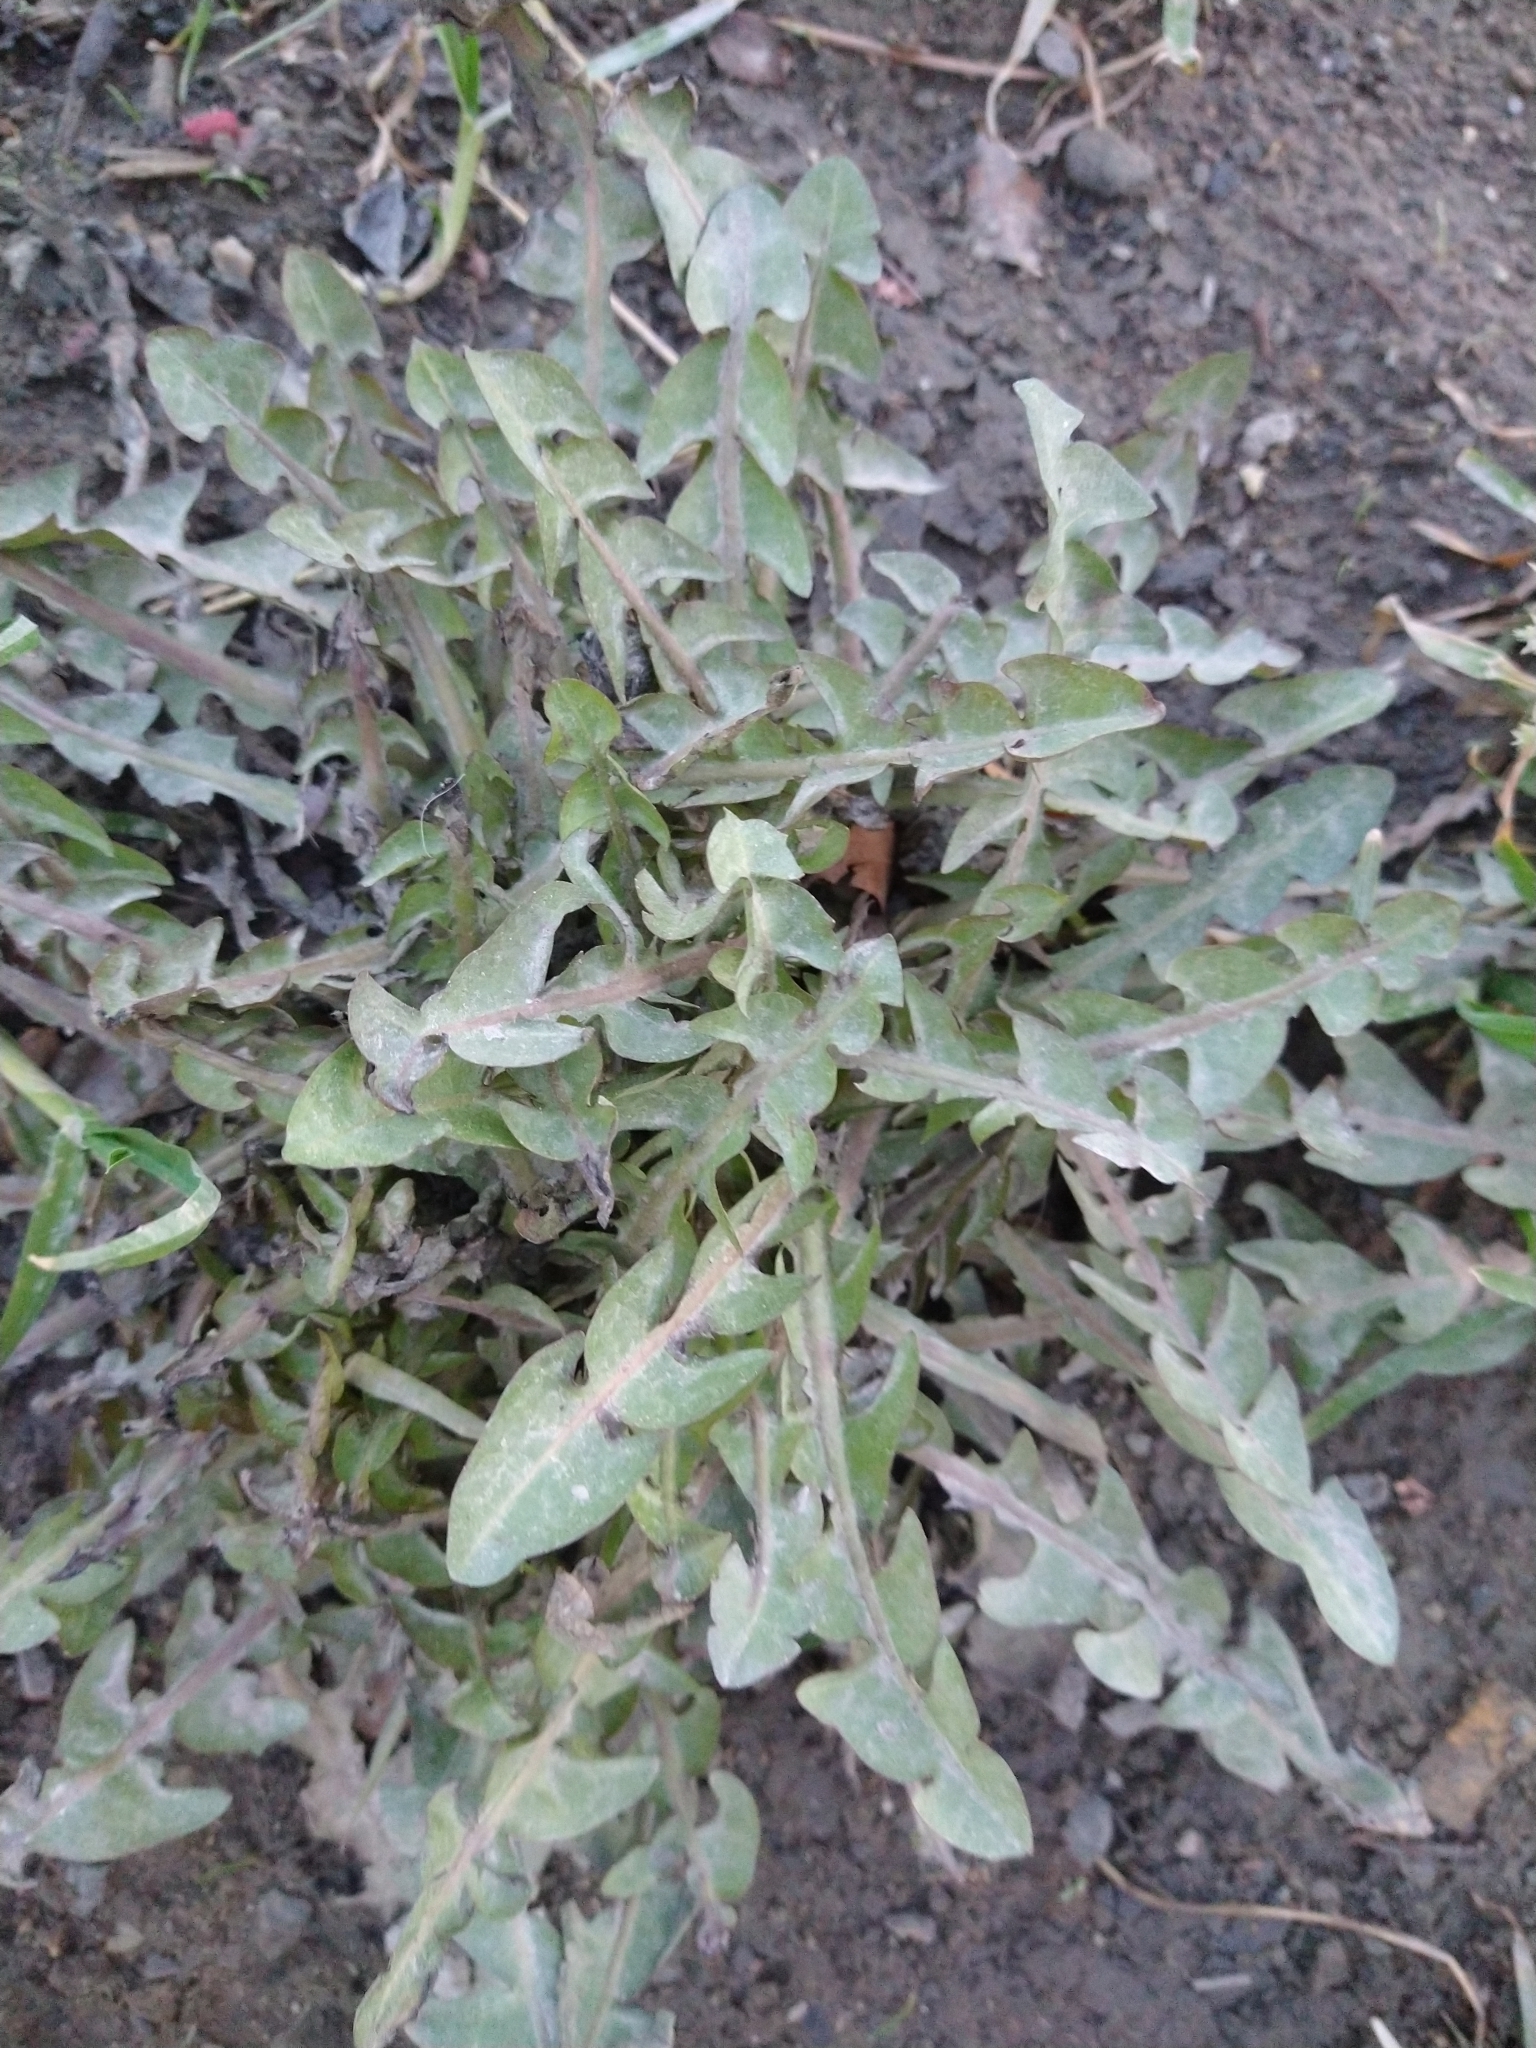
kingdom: Plantae
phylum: Tracheophyta
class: Magnoliopsida
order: Asterales
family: Asteraceae
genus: Taraxacum
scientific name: Taraxacum officinale
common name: Common dandelion
